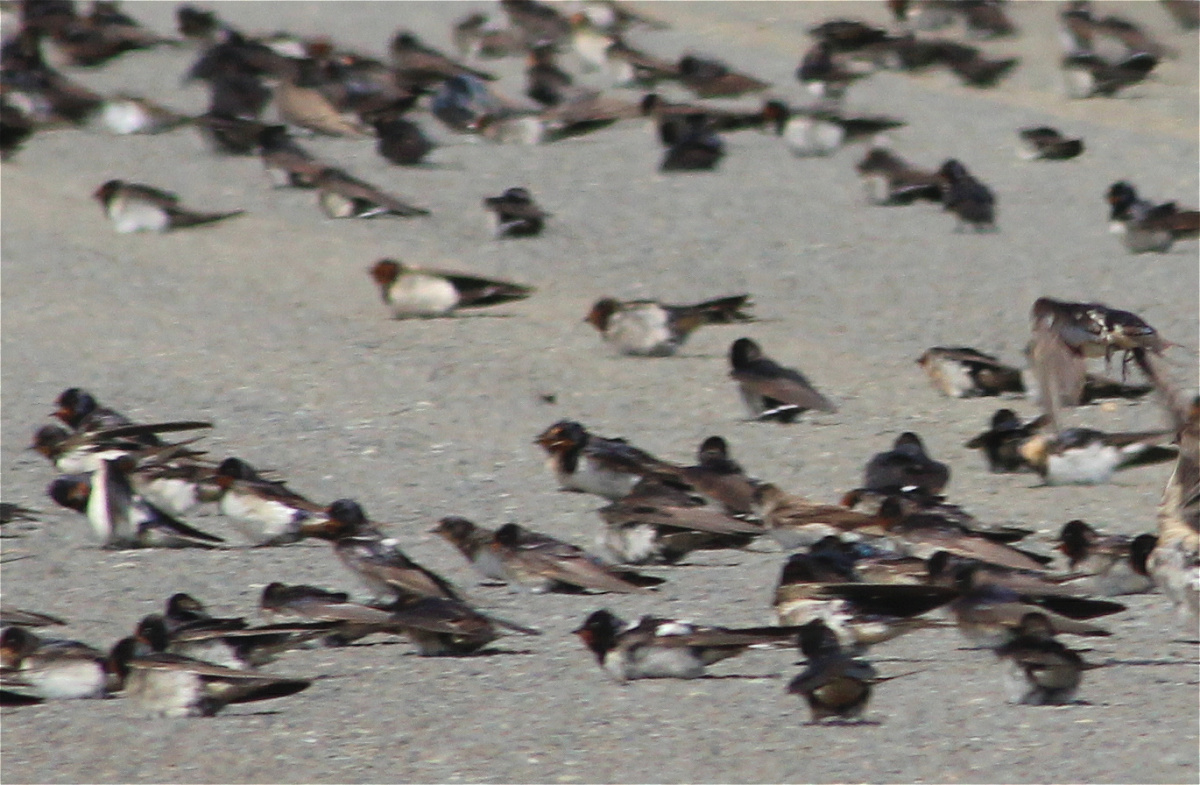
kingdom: Animalia
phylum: Chordata
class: Aves
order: Passeriformes
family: Hirundinidae
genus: Hirundo
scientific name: Hirundo rustica
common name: Barn swallow
